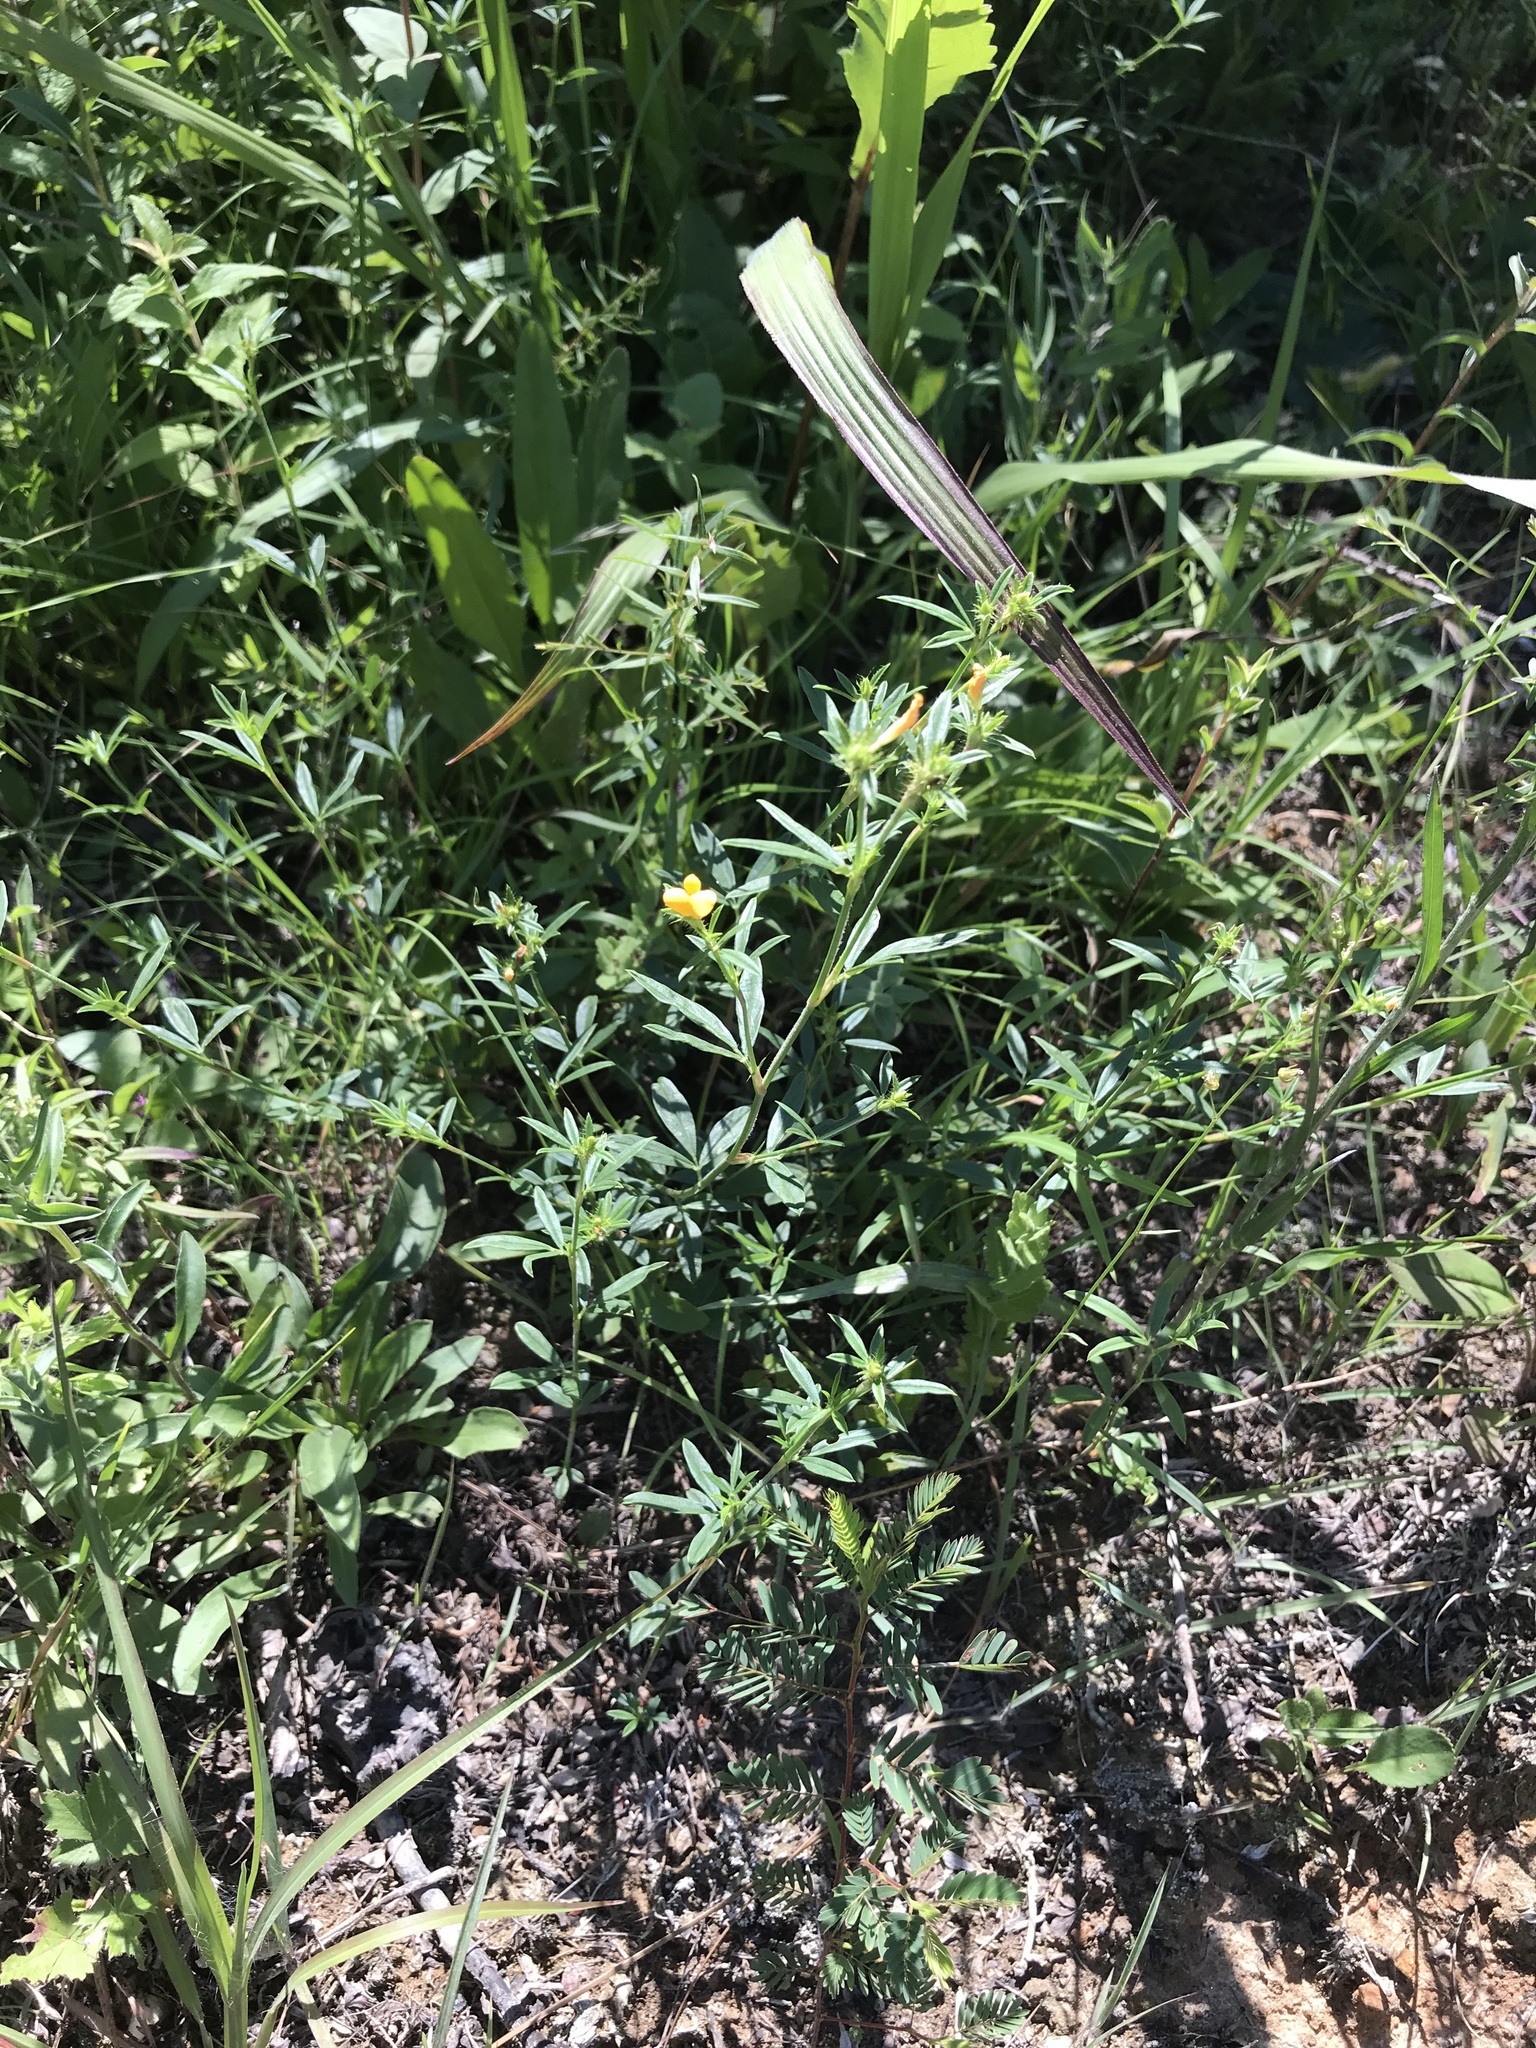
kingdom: Plantae
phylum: Tracheophyta
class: Magnoliopsida
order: Fabales
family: Fabaceae
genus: Stylosanthes
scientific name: Stylosanthes biflora
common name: Two-flower pencil-flower
